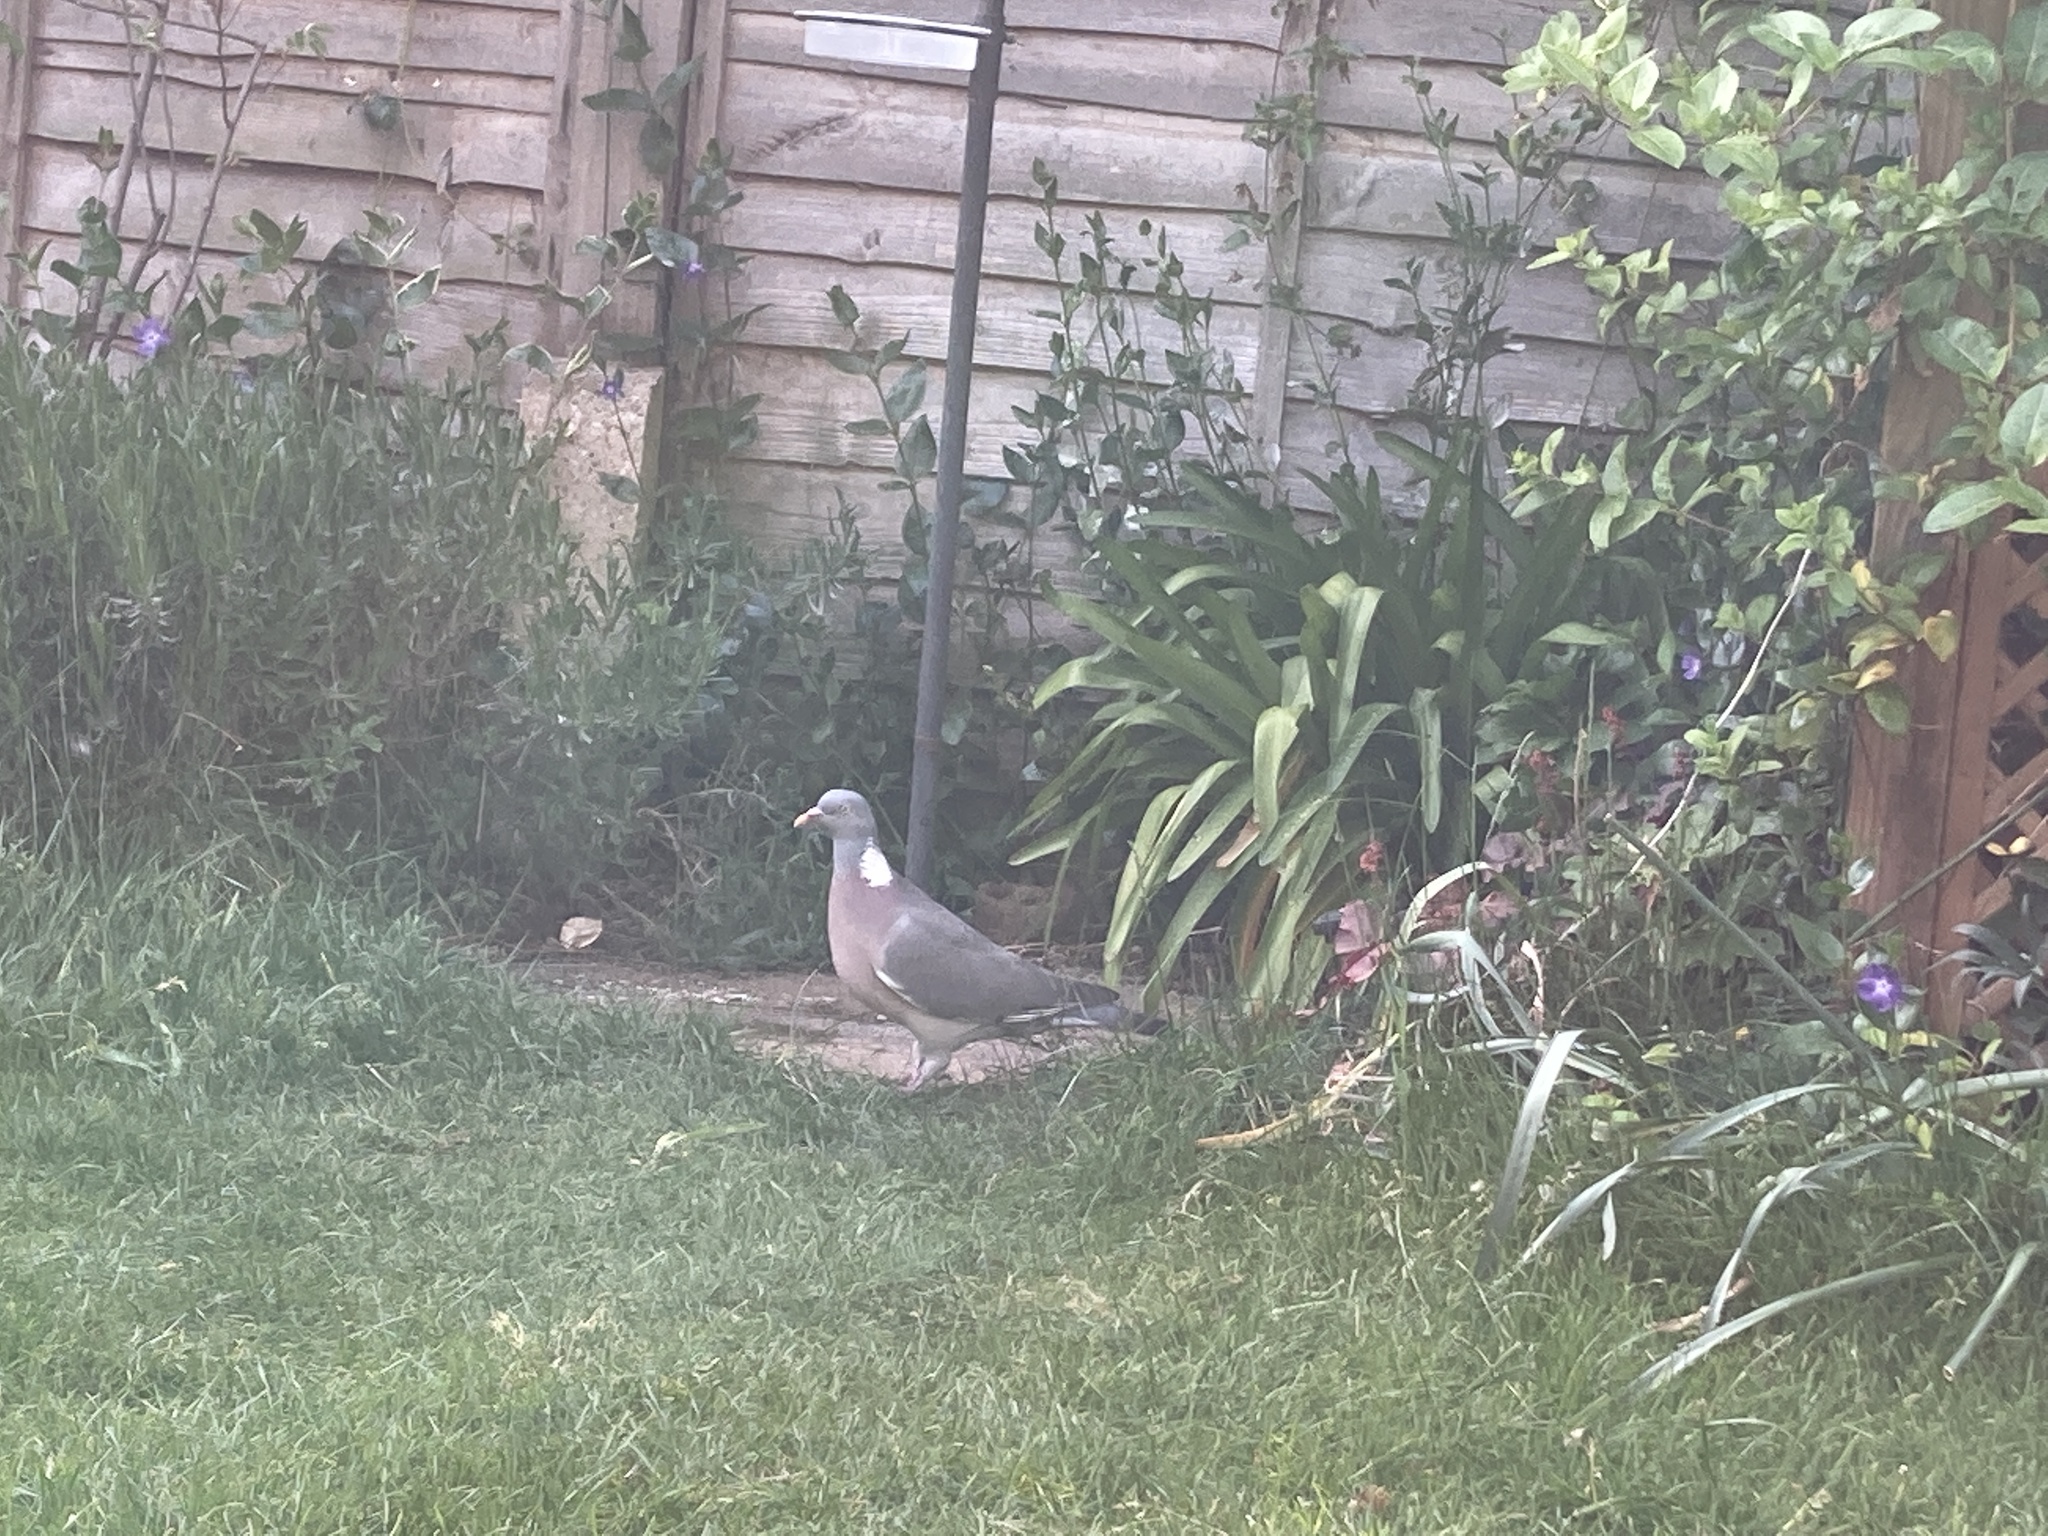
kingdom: Animalia
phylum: Chordata
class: Aves
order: Columbiformes
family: Columbidae
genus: Columba
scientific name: Columba palumbus
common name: Common wood pigeon
